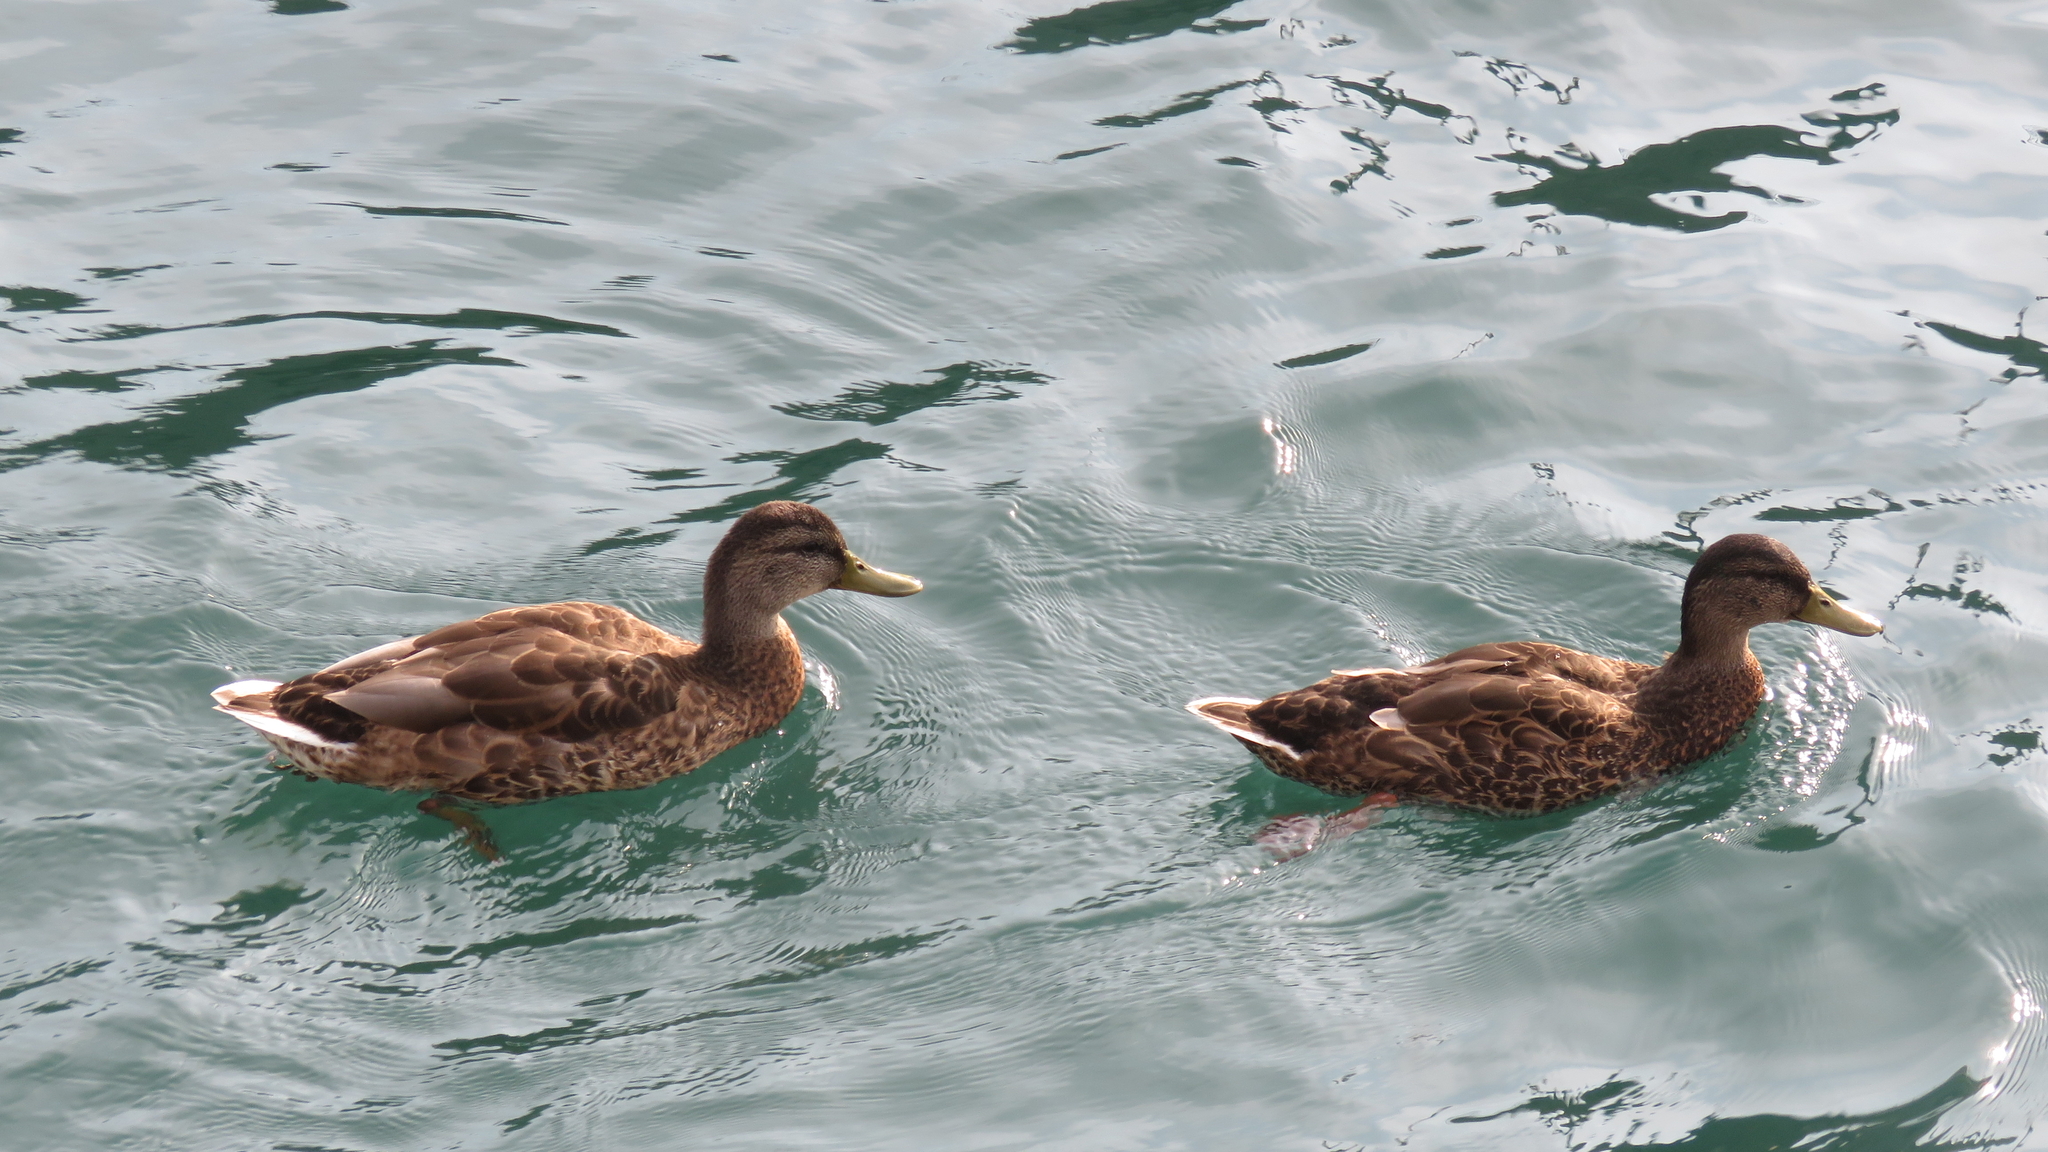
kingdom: Animalia
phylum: Chordata
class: Aves
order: Anseriformes
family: Anatidae
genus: Anas
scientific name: Anas platyrhynchos
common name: Mallard
